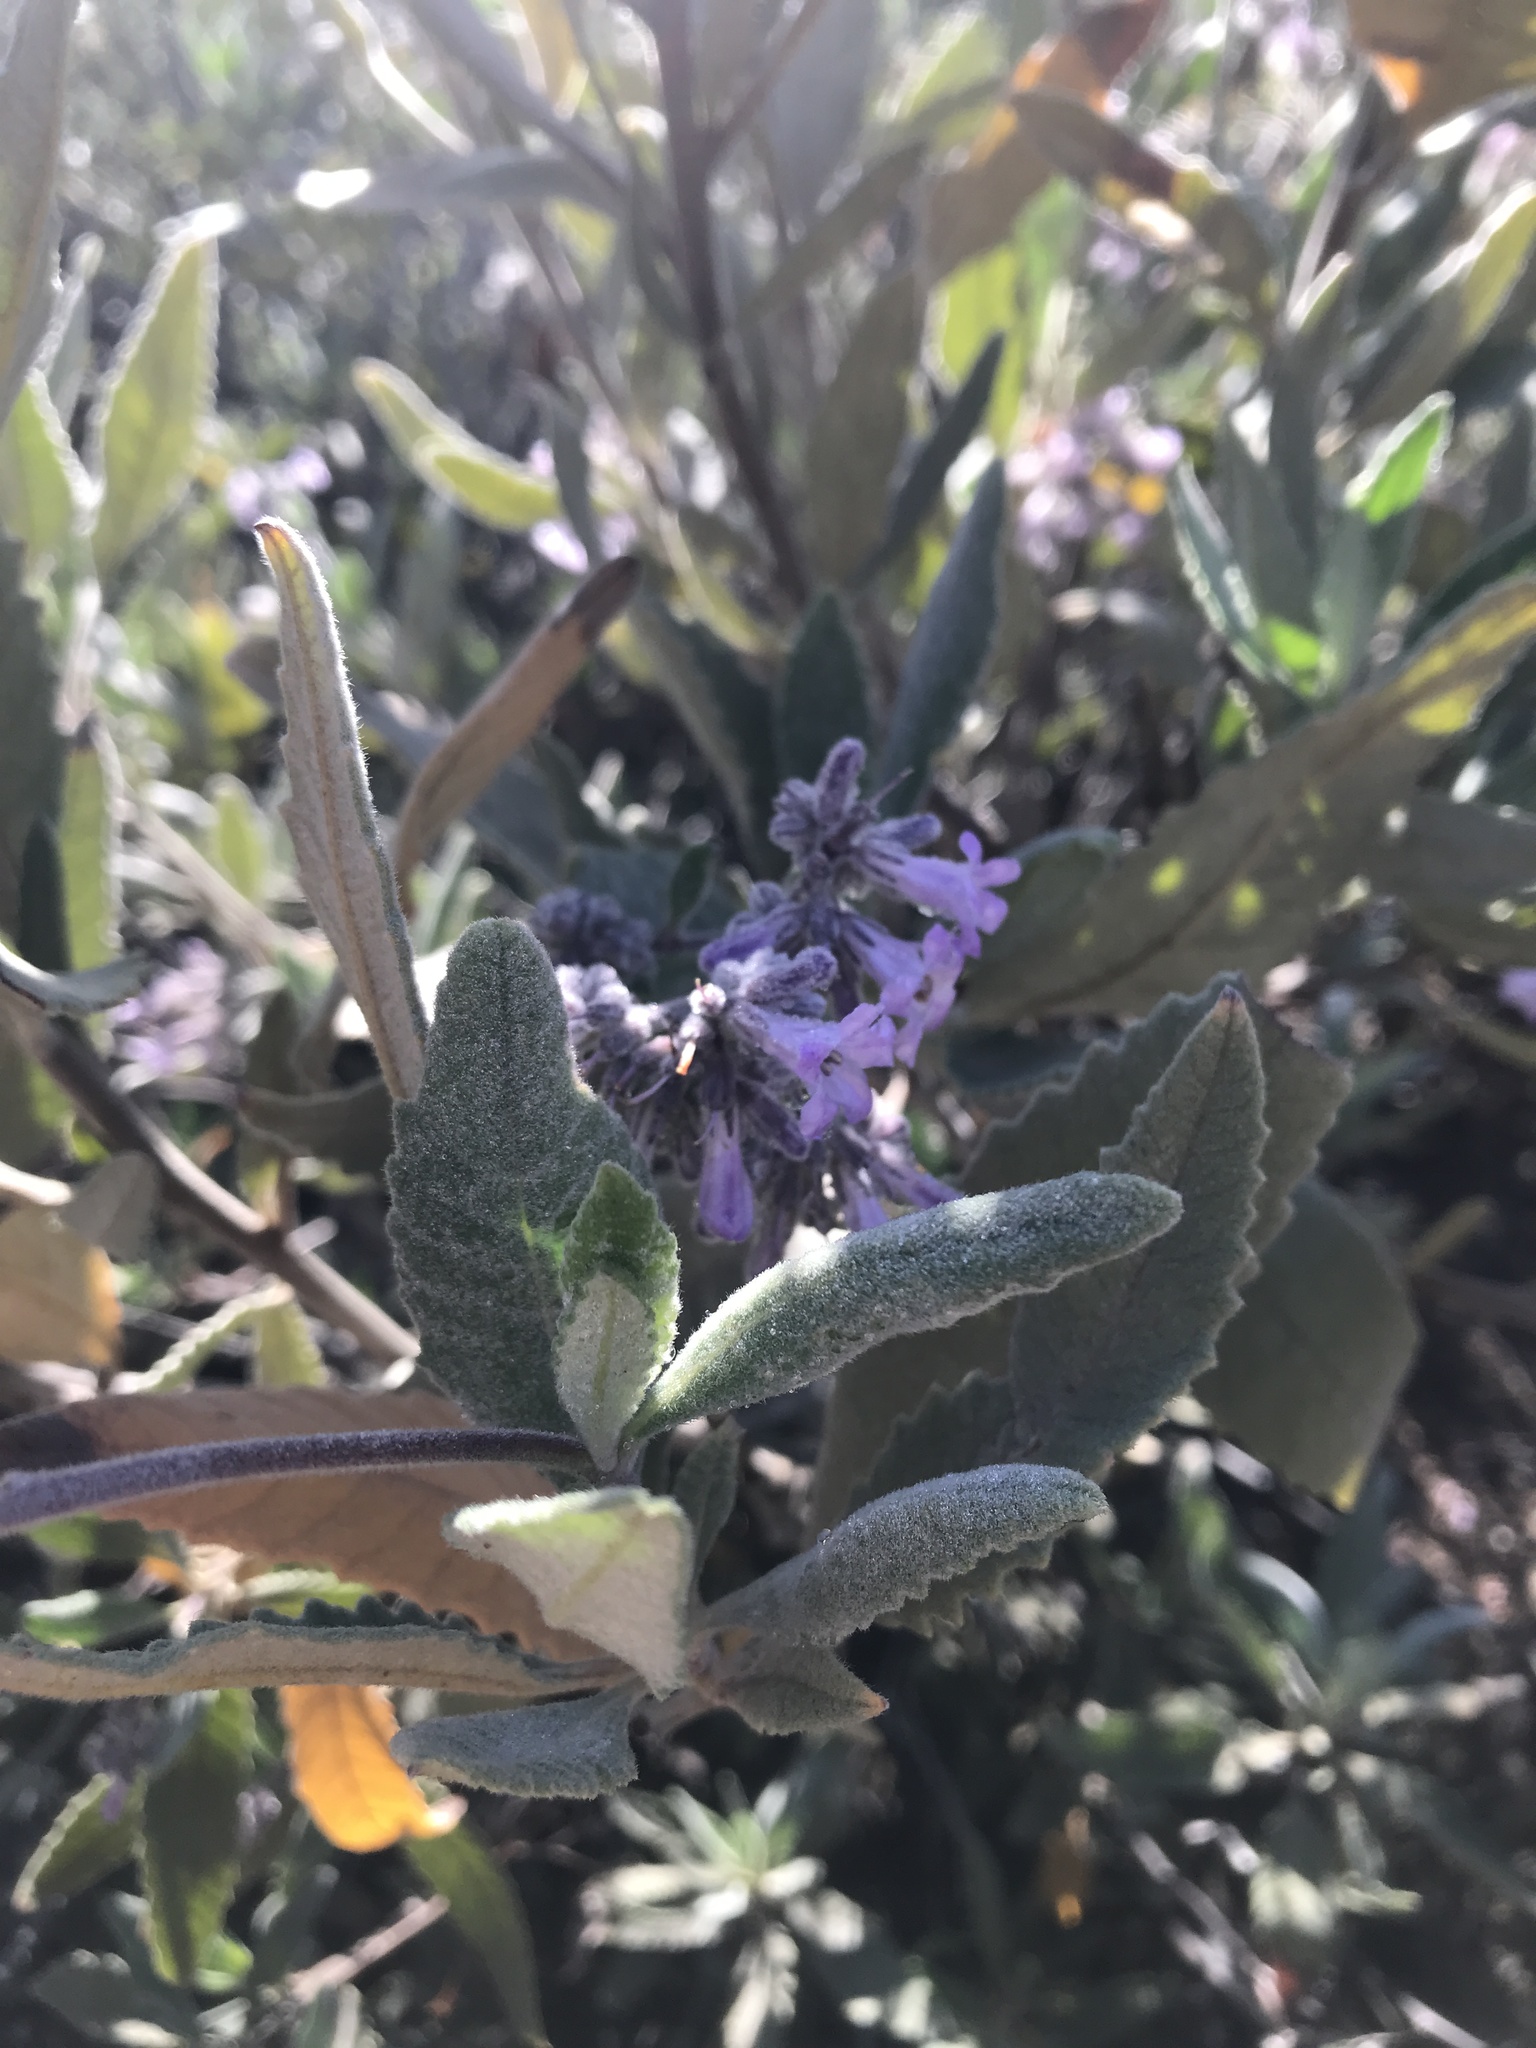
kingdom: Plantae
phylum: Tracheophyta
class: Magnoliopsida
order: Boraginales
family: Namaceae
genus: Eriodictyon
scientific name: Eriodictyon crassifolium
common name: Thick-leaf yerba-santa
